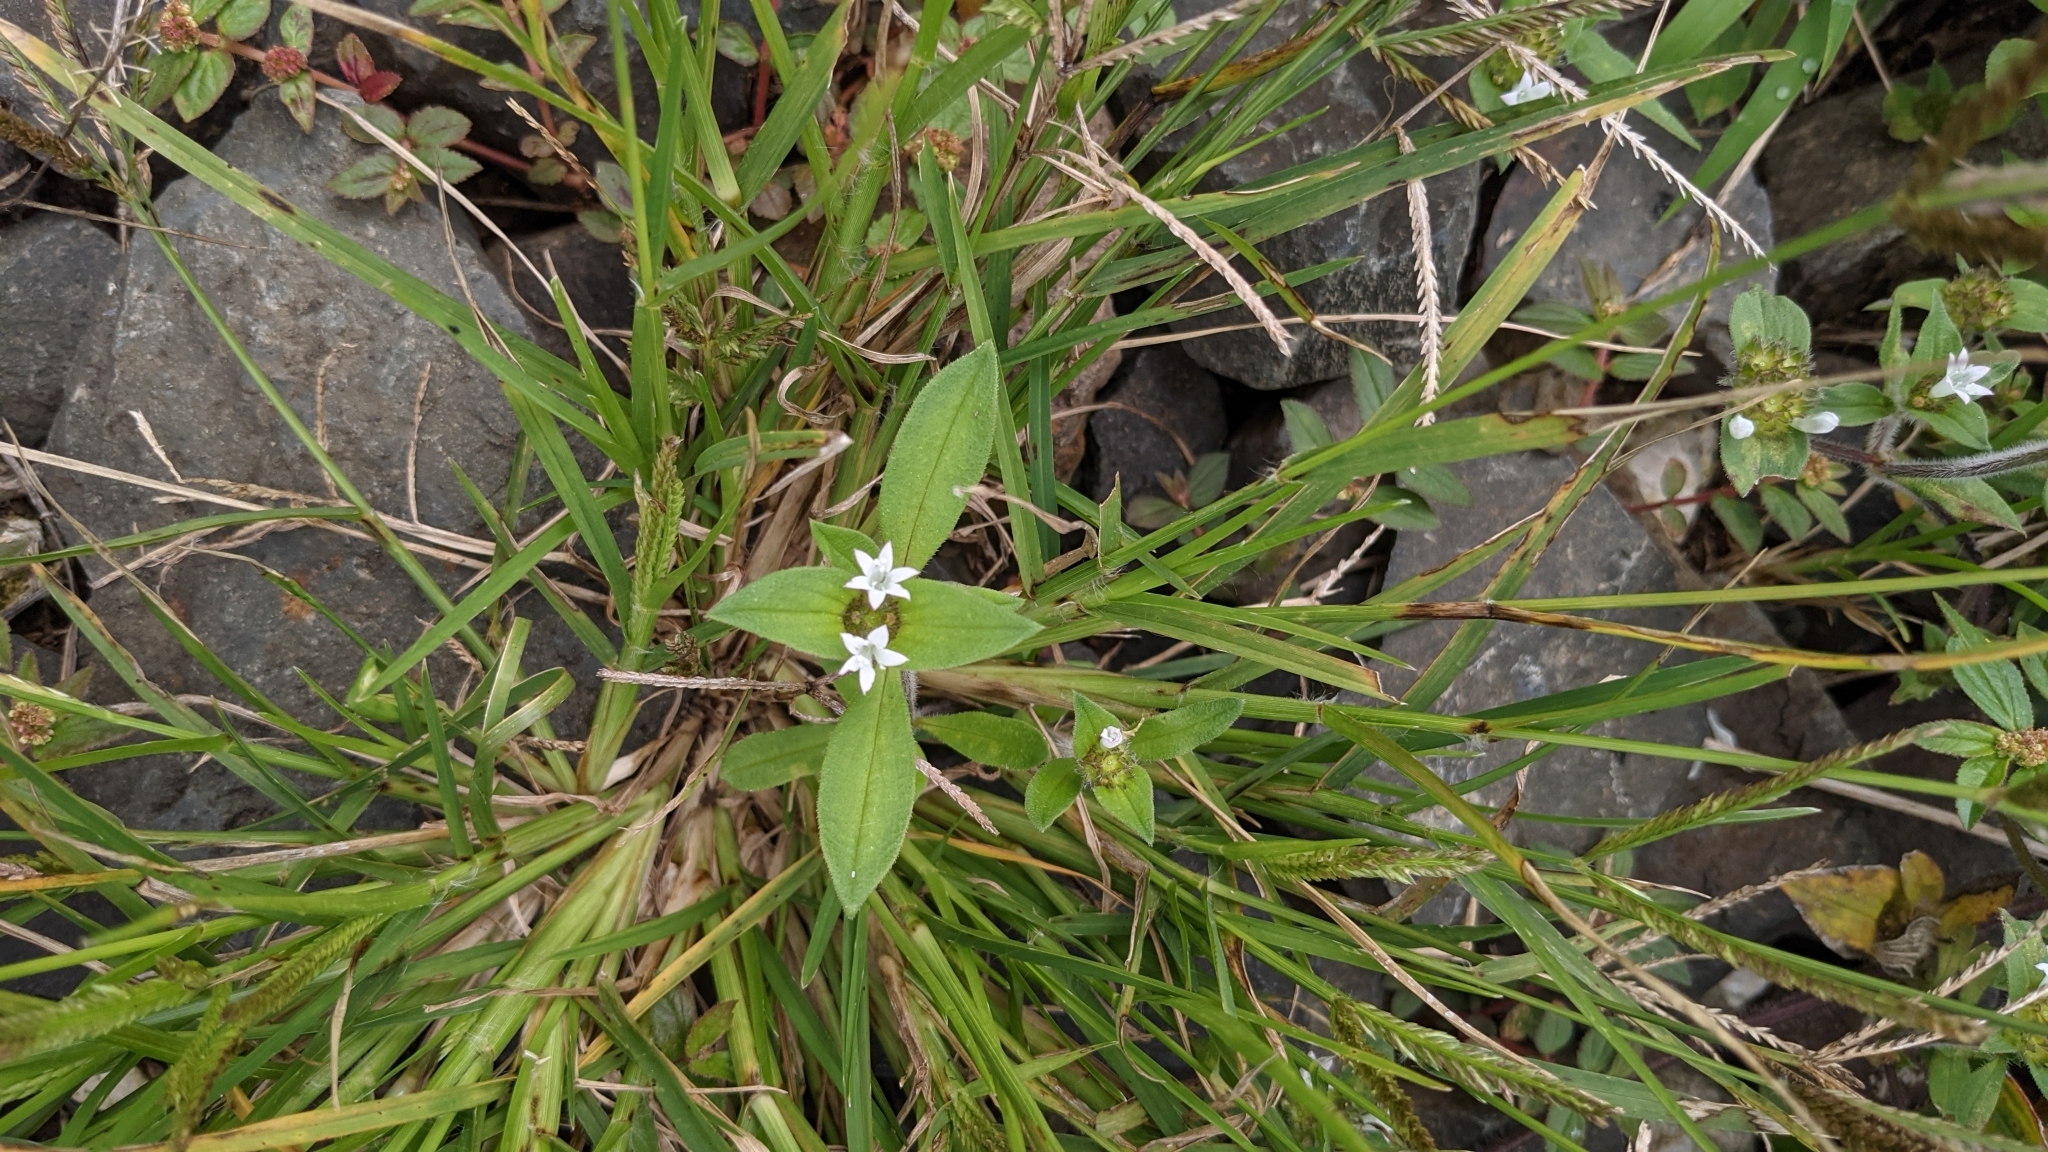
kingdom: Plantae
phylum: Tracheophyta
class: Magnoliopsida
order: Gentianales
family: Rubiaceae
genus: Richardia
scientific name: Richardia scabra
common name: Rough mexican clover
